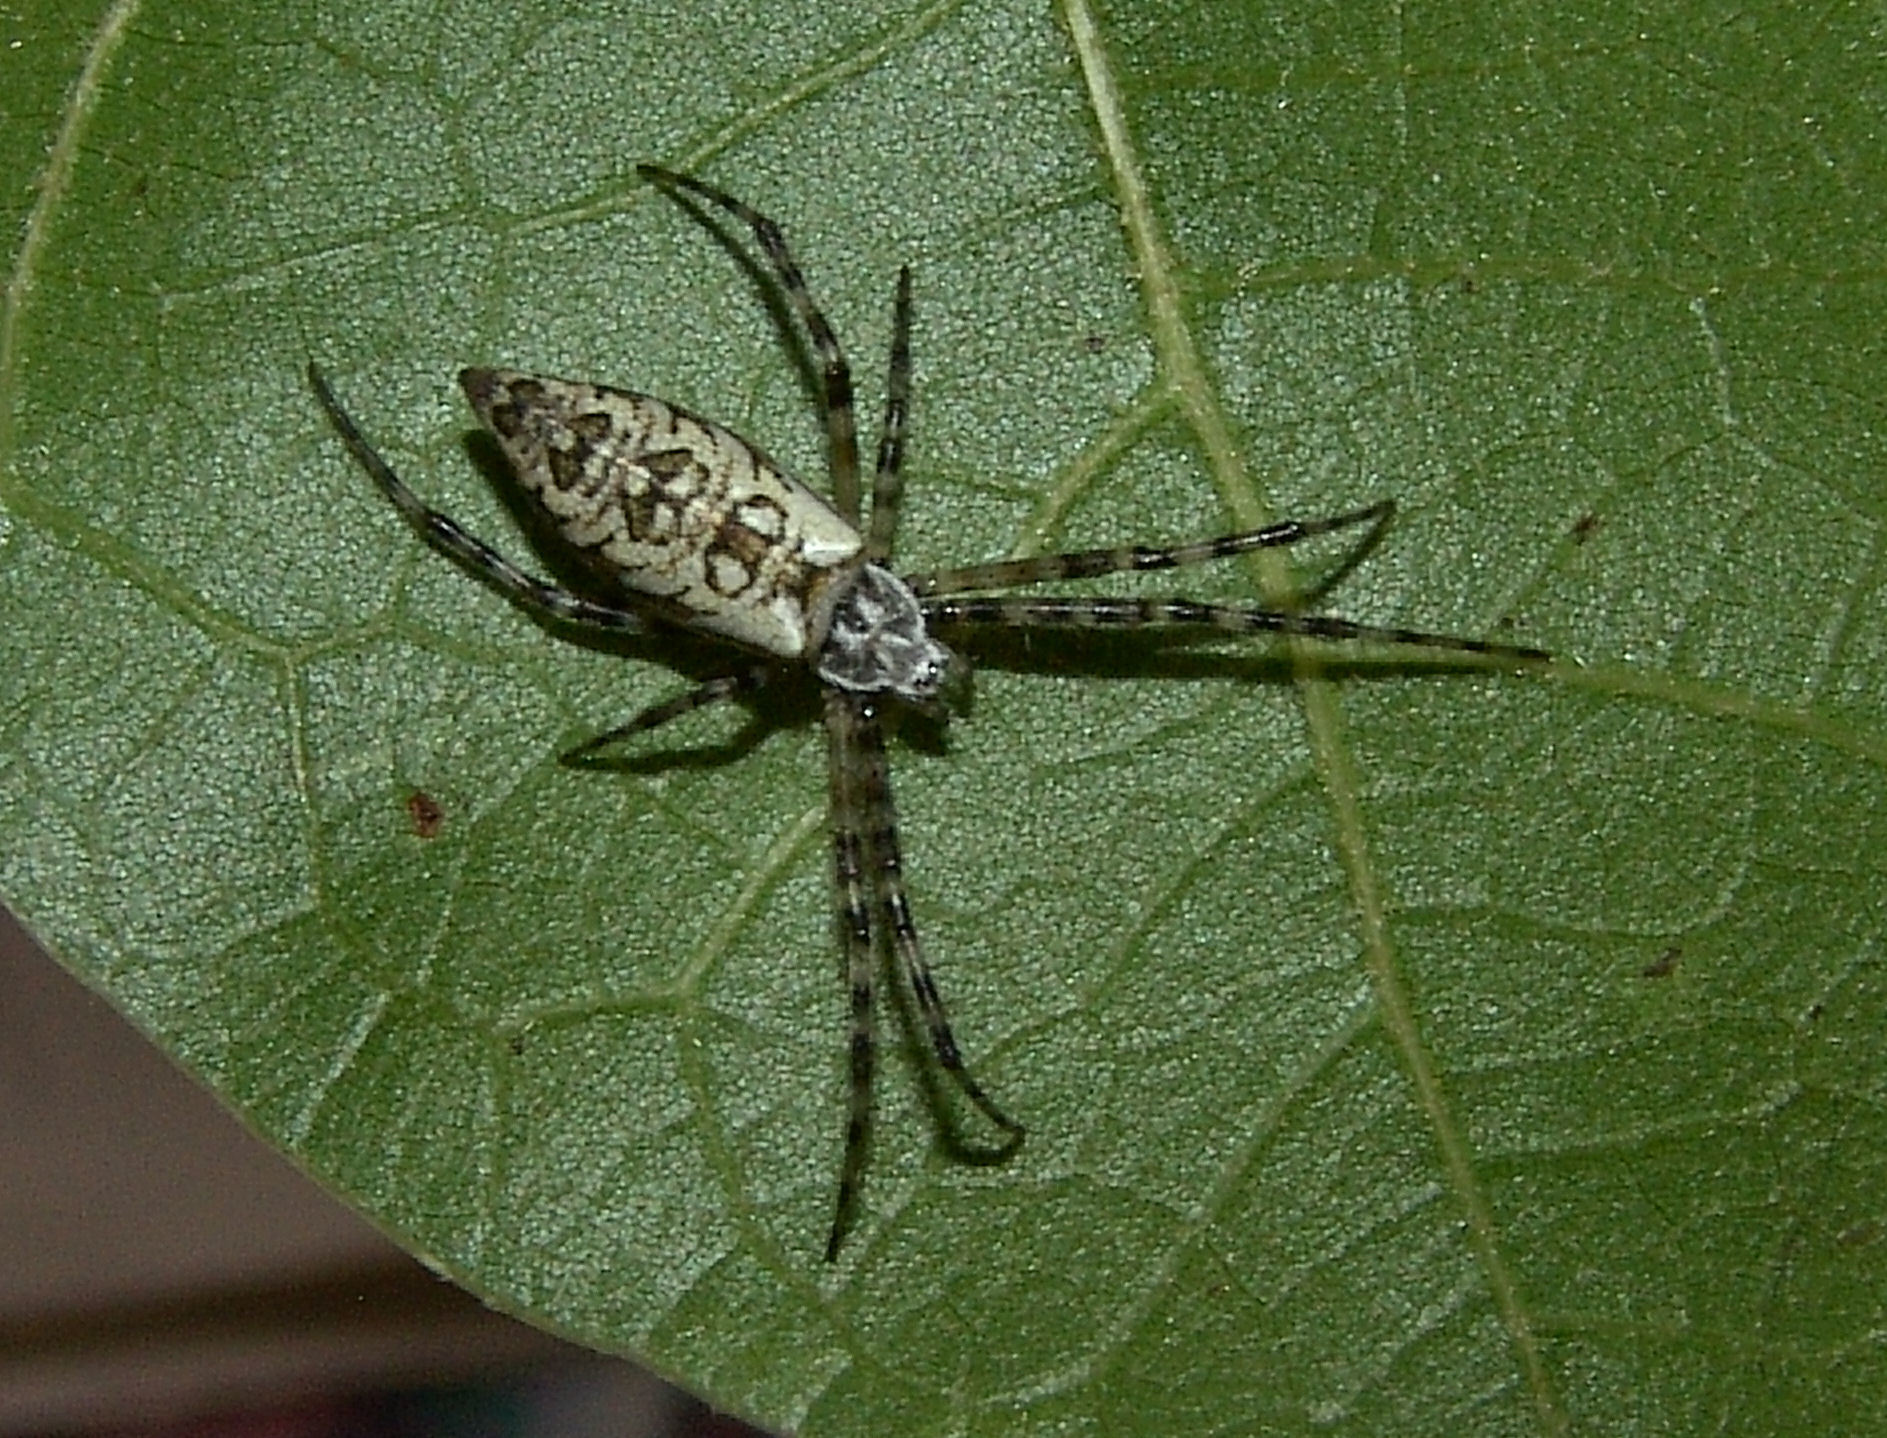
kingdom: Animalia
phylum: Arthropoda
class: Arachnida
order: Araneae
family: Araneidae
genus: Argiope
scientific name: Argiope aurantia
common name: Orb weavers
